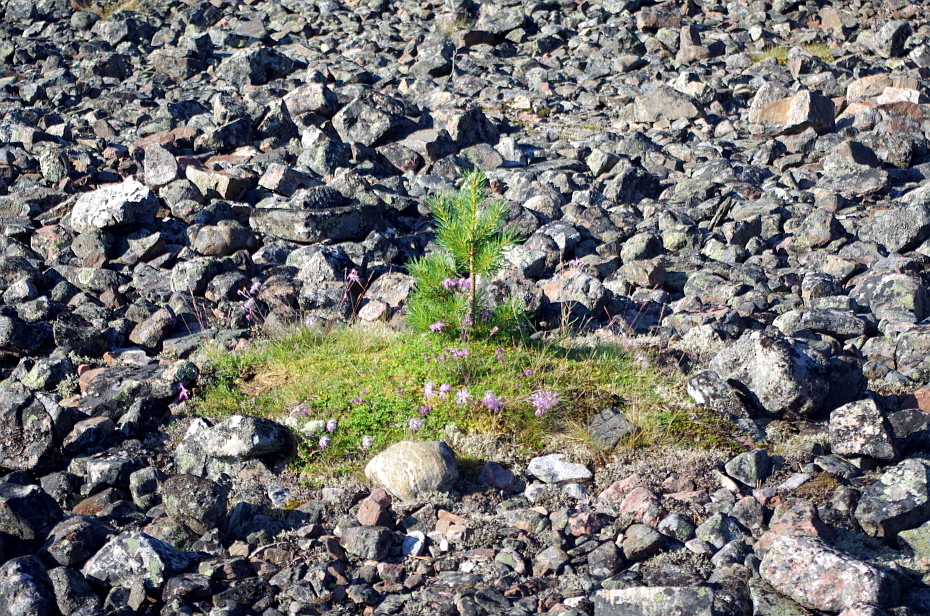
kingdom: Plantae
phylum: Tracheophyta
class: Pinopsida
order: Pinales
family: Pinaceae
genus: Pinus
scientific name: Pinus sylvestris
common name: Scots pine
